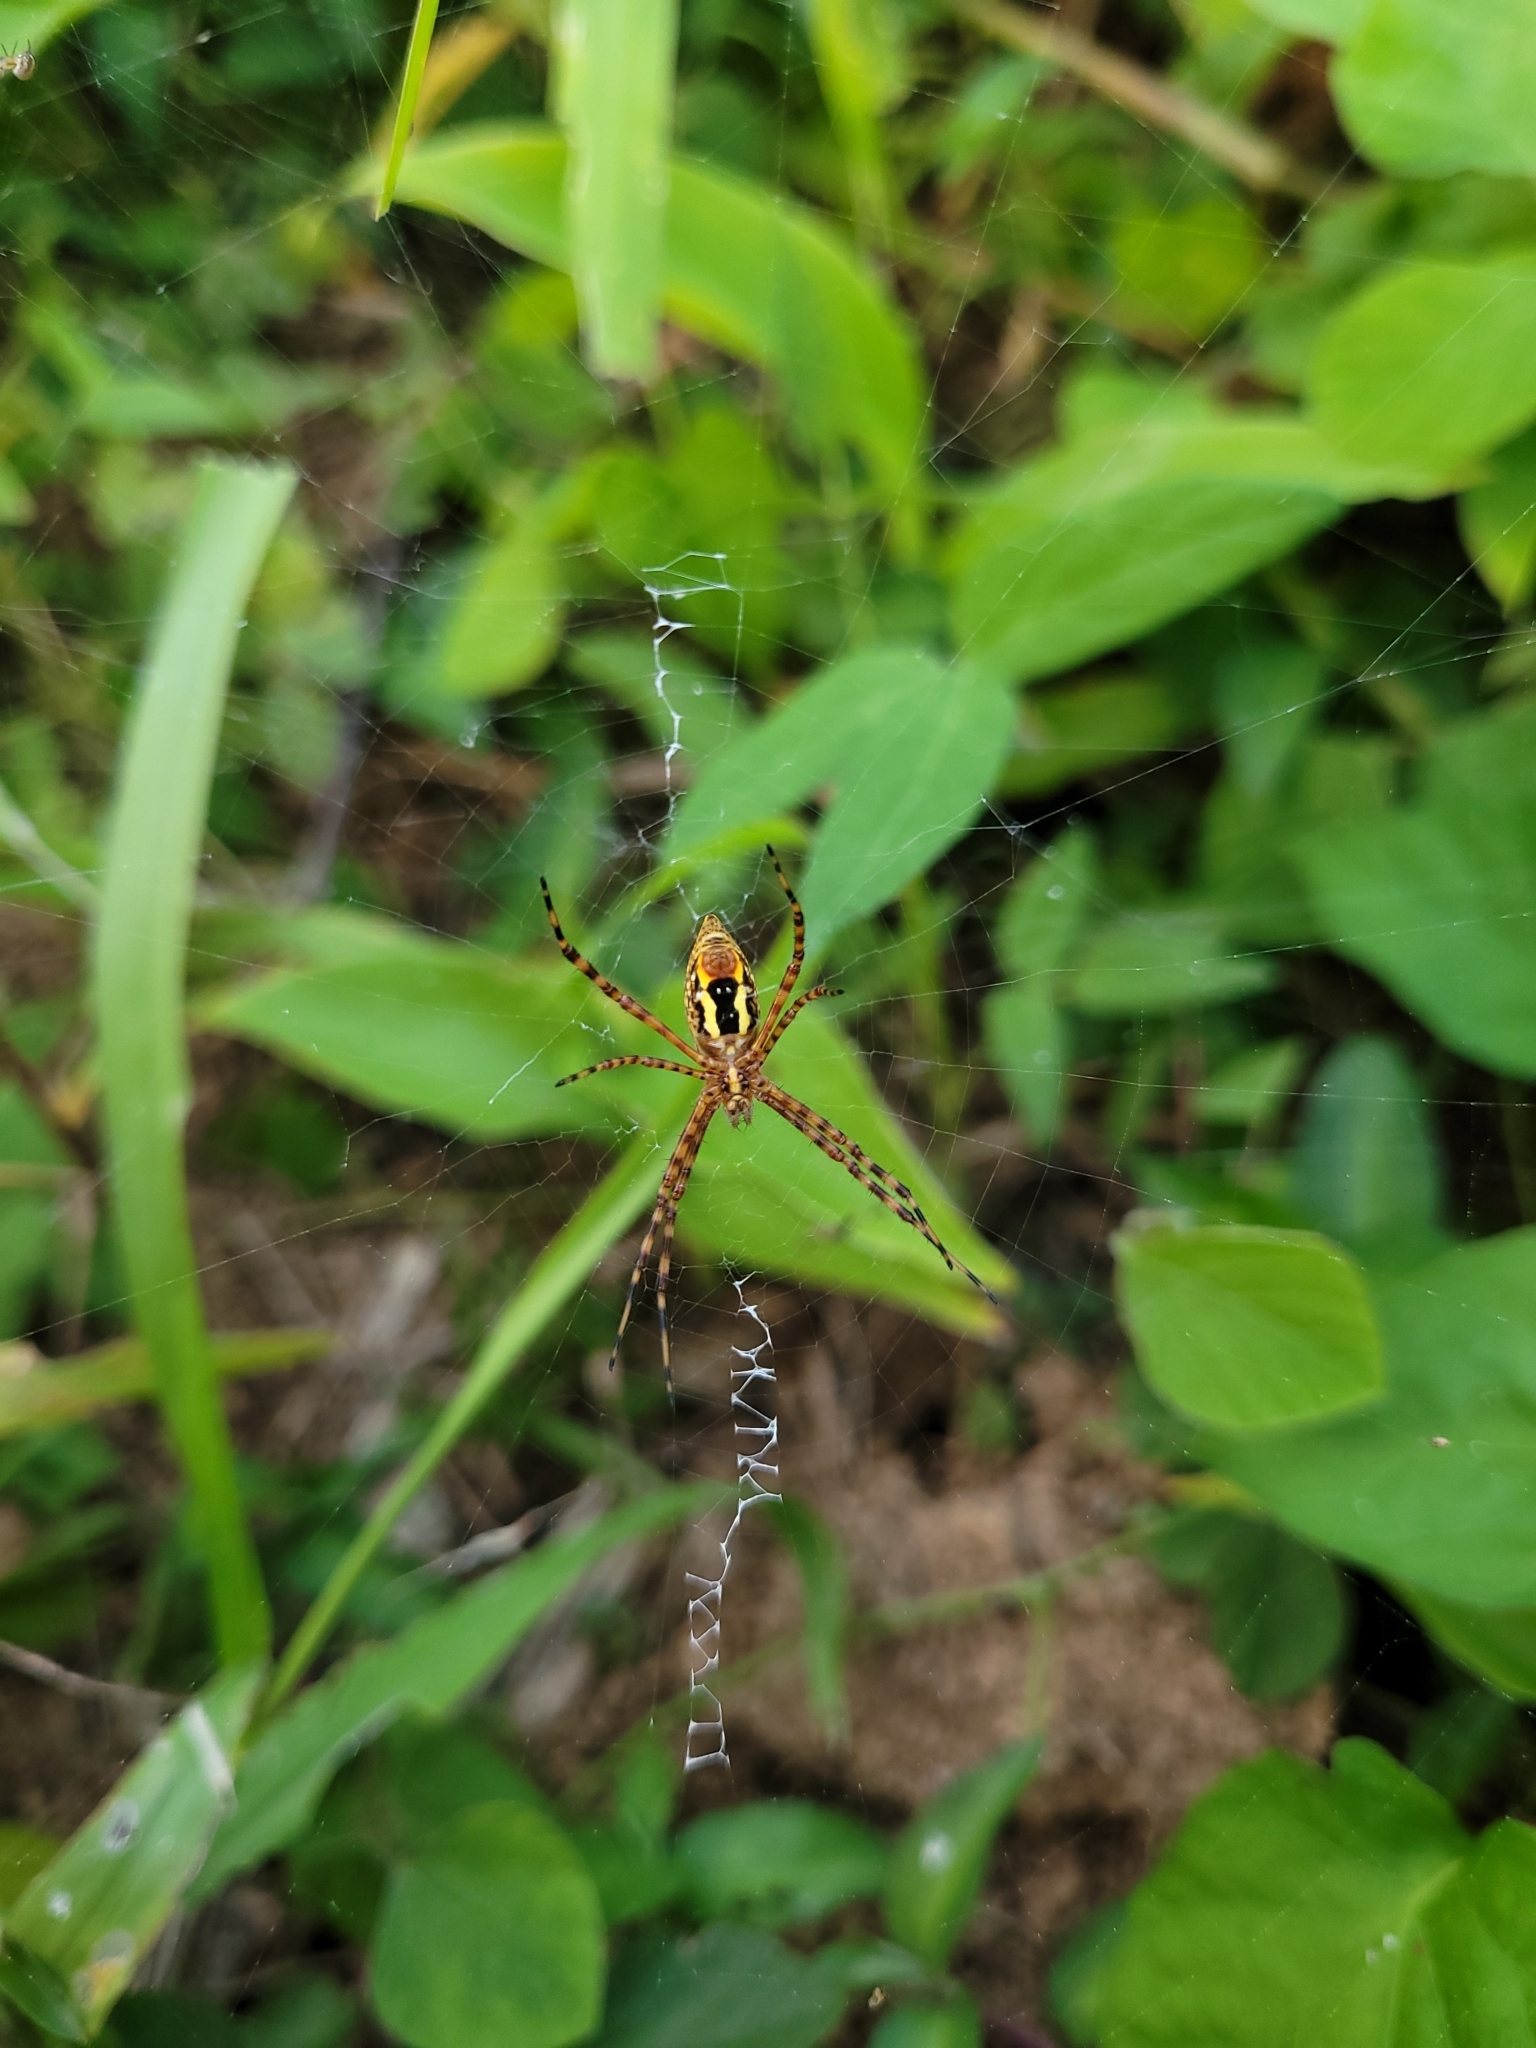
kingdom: Animalia
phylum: Arthropoda
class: Arachnida
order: Araneae
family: Araneidae
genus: Argiope
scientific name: Argiope trifasciata
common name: Banded garden spider
